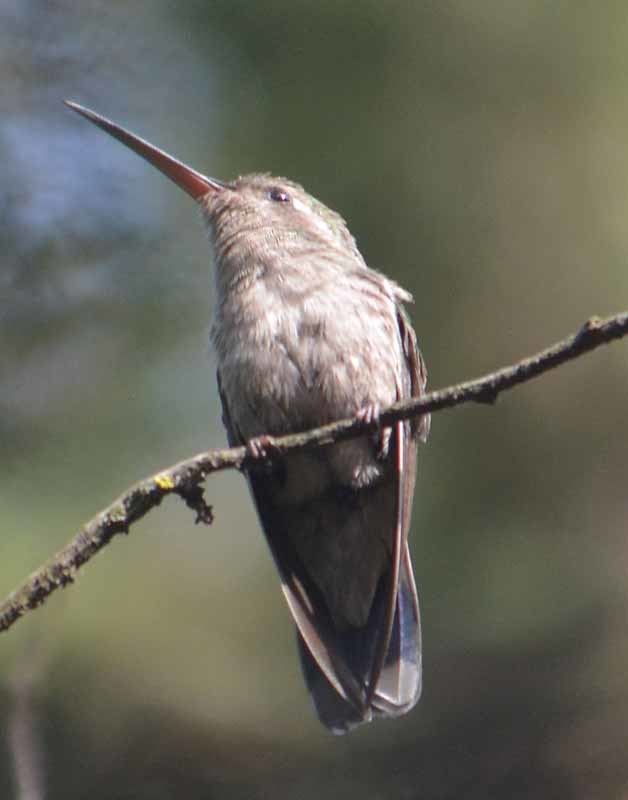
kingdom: Animalia
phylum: Chordata
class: Aves
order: Apodiformes
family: Trochilidae
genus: Cynanthus
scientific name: Cynanthus latirostris
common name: Broad-billed hummingbird
